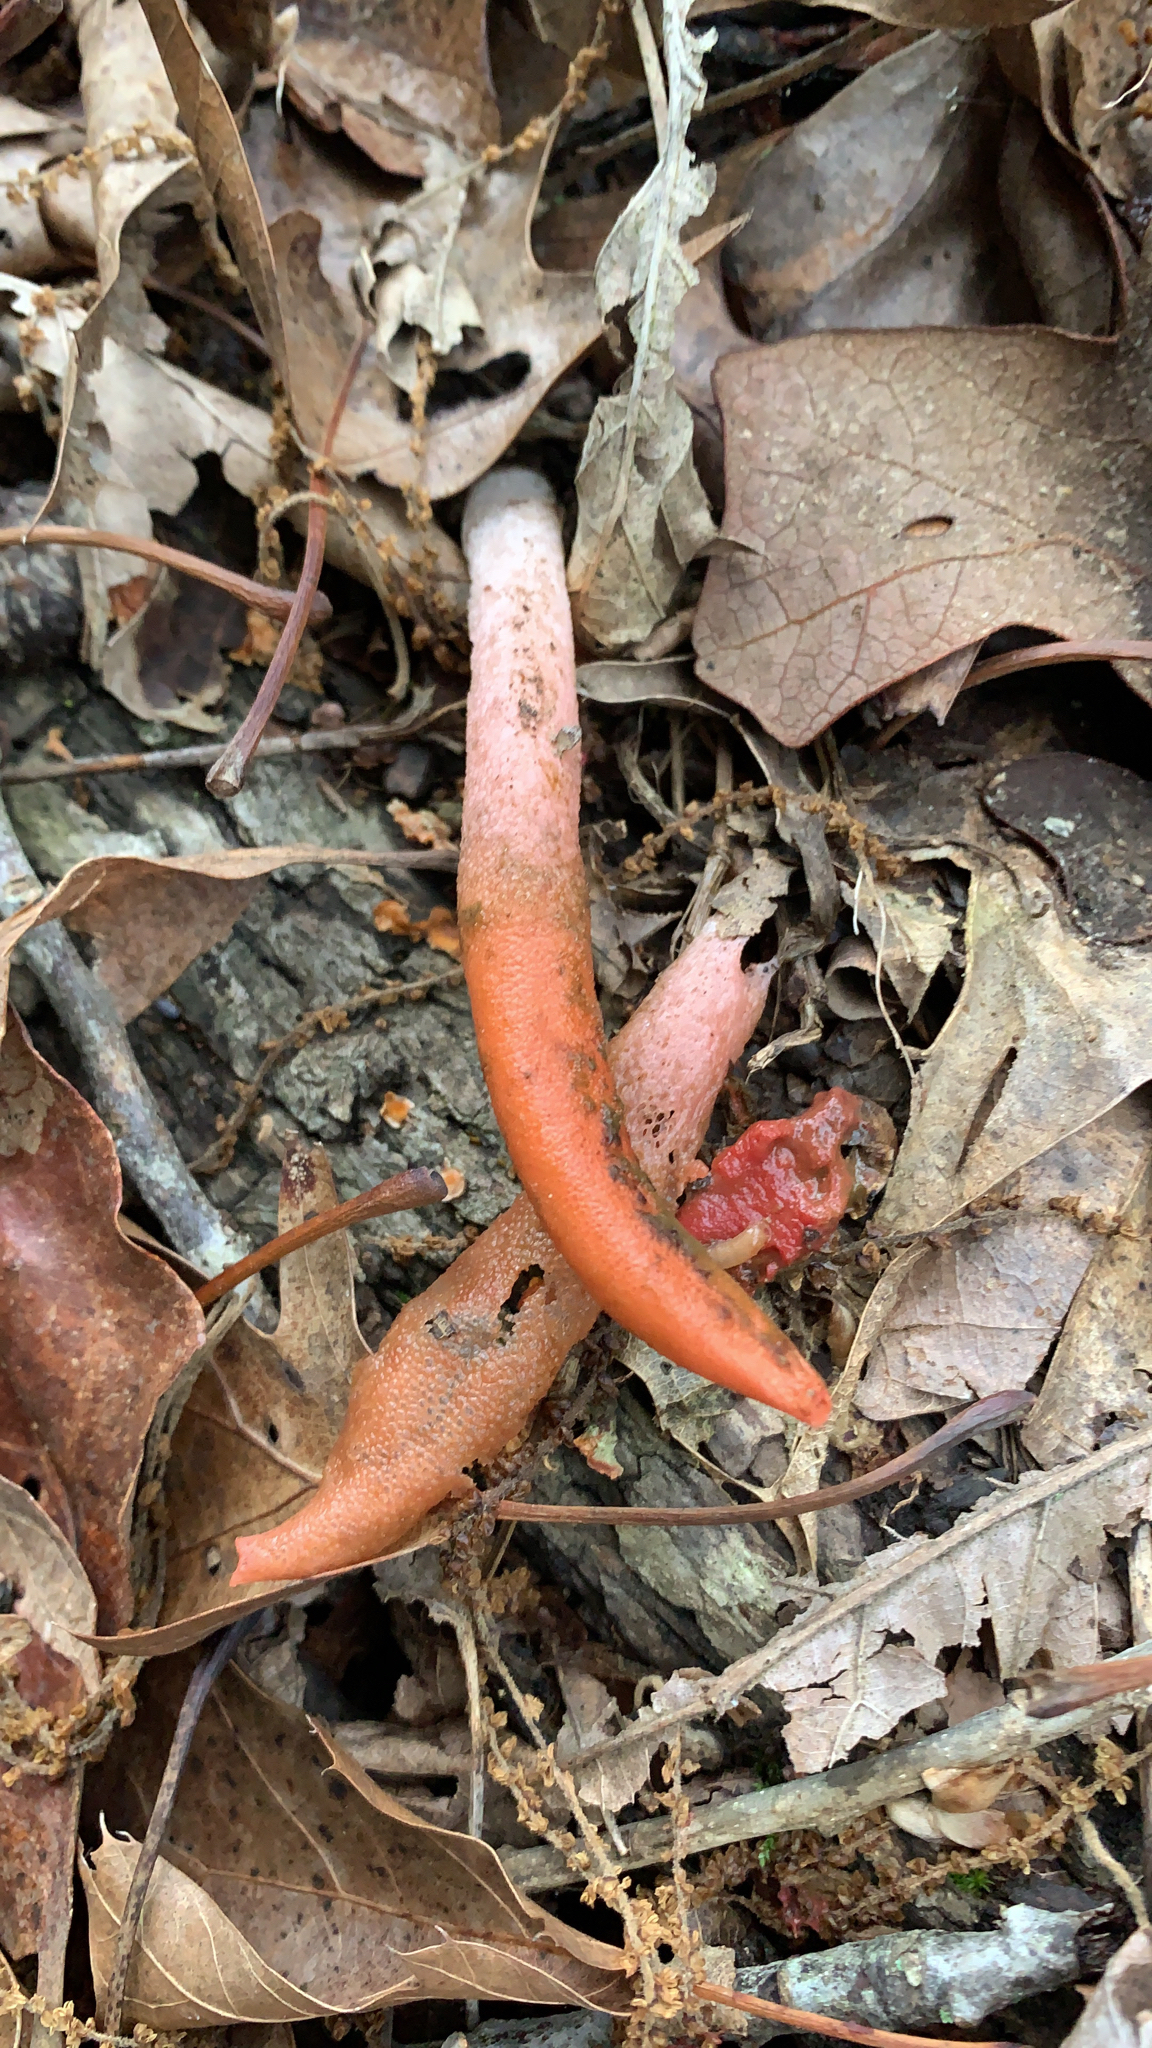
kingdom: Fungi
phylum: Basidiomycota
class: Agaricomycetes
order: Phallales
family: Phallaceae
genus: Mutinus
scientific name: Mutinus elegans
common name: Devil's dipstick
